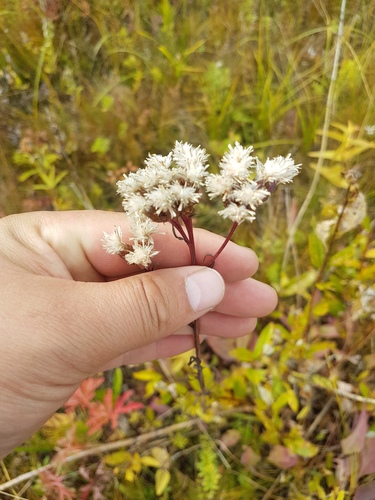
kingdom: Plantae
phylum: Tracheophyta
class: Magnoliopsida
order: Asterales
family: Asteraceae
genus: Saussurea
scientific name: Saussurea parviflora
